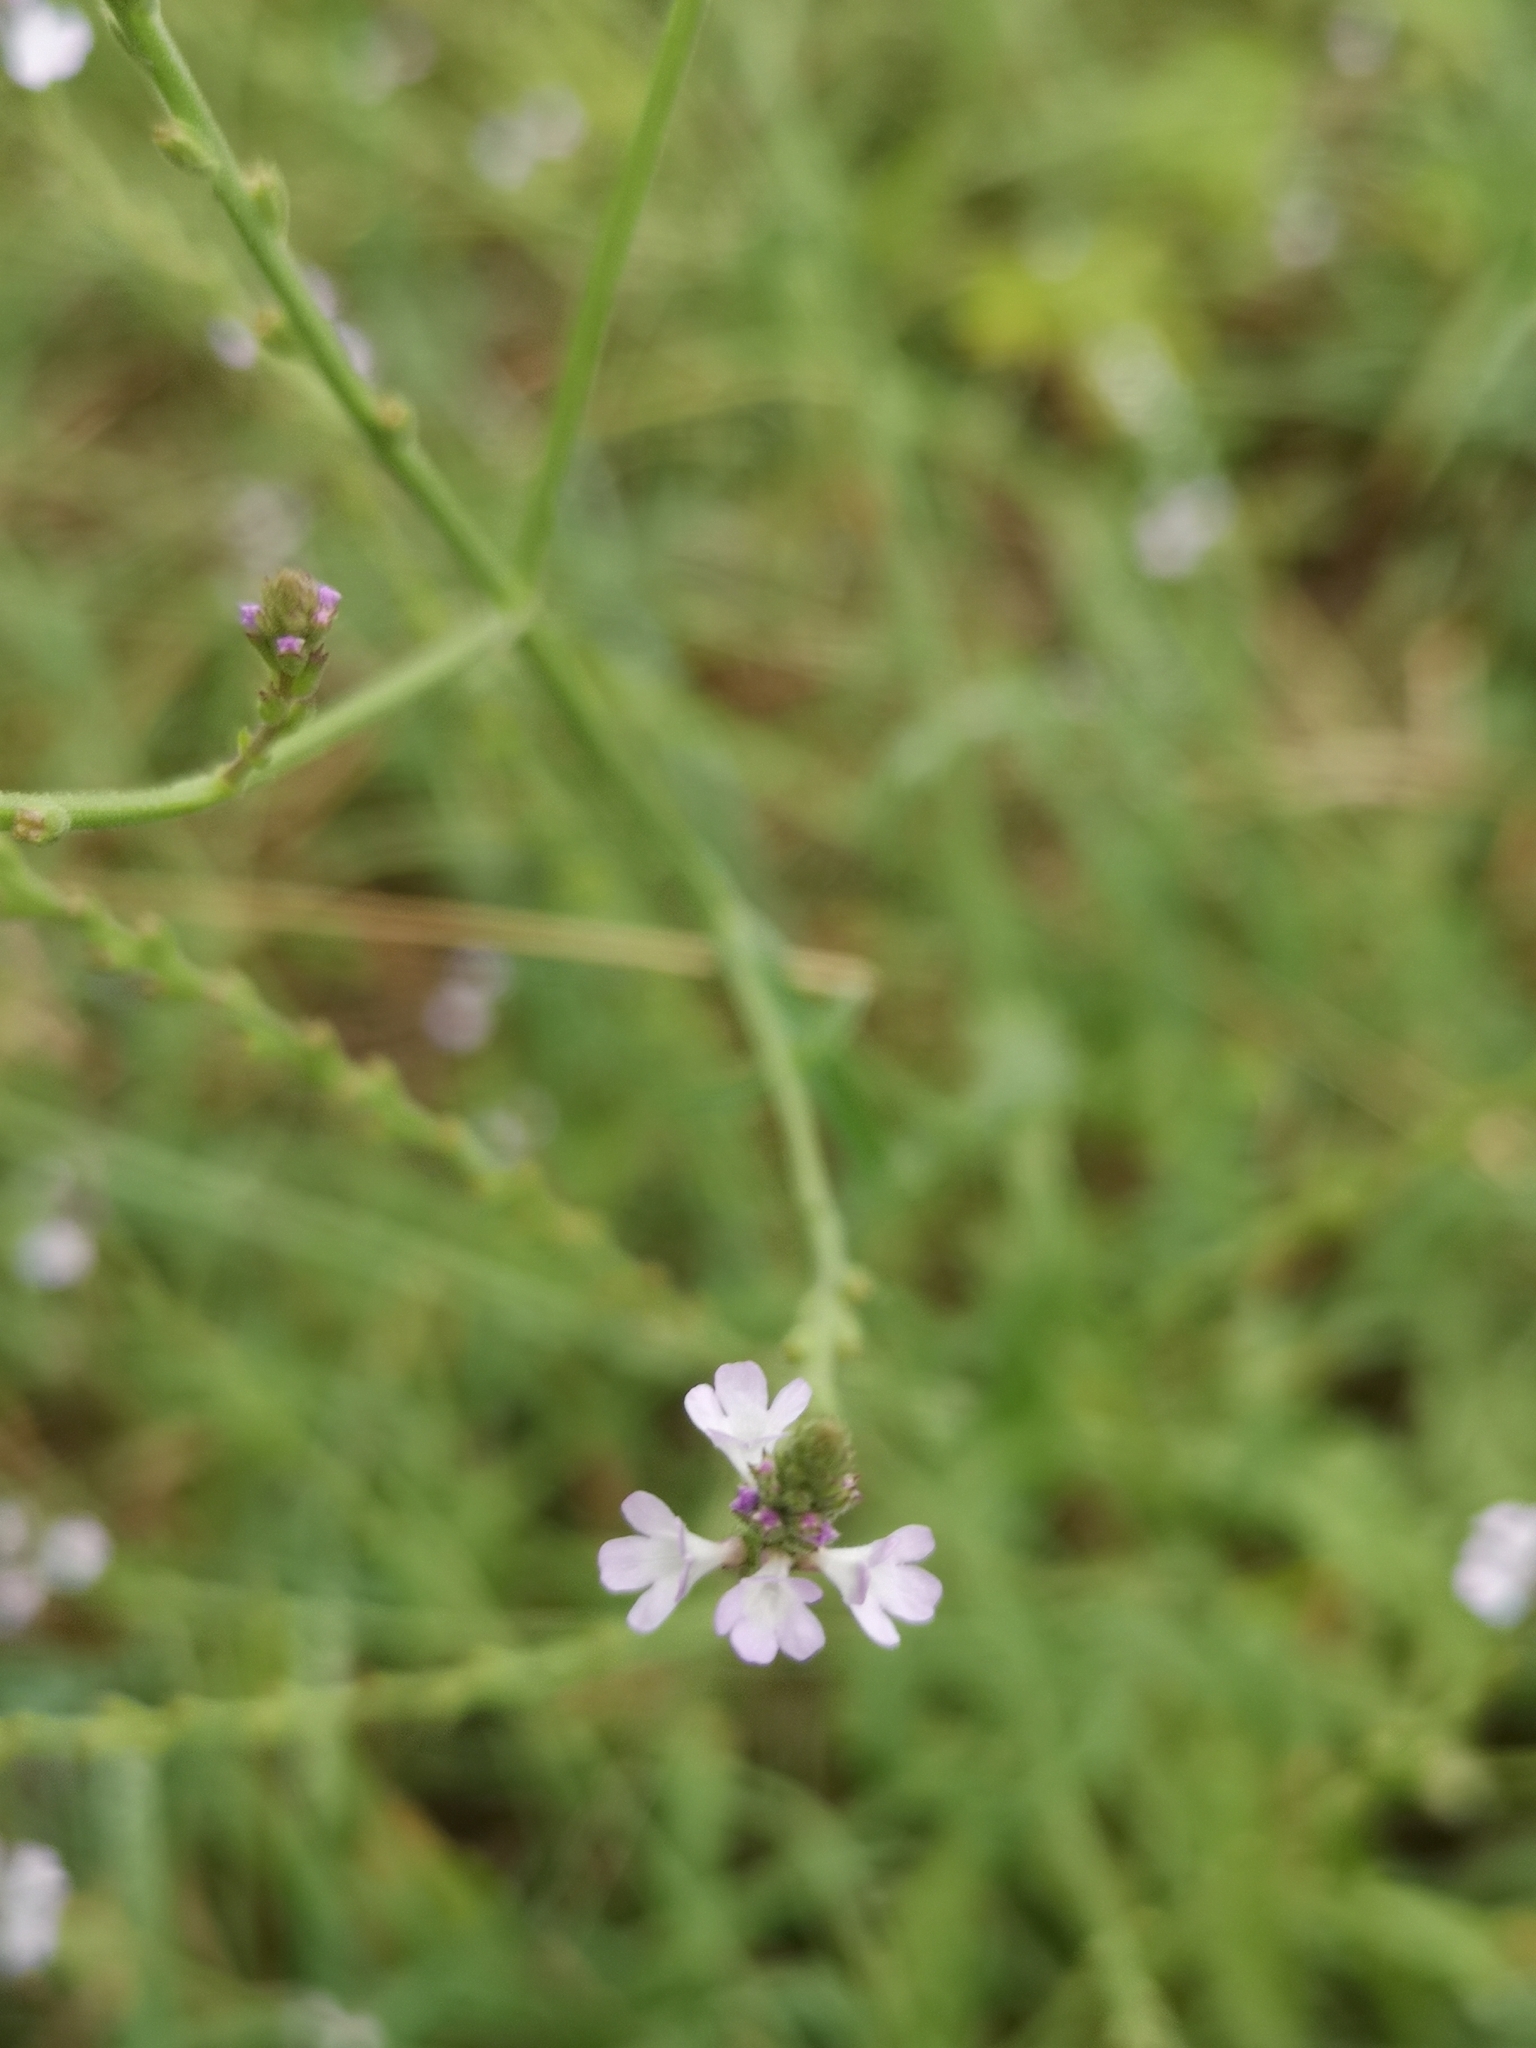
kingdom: Plantae
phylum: Tracheophyta
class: Magnoliopsida
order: Lamiales
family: Verbenaceae
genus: Verbena
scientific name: Verbena officinalis
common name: Vervain
